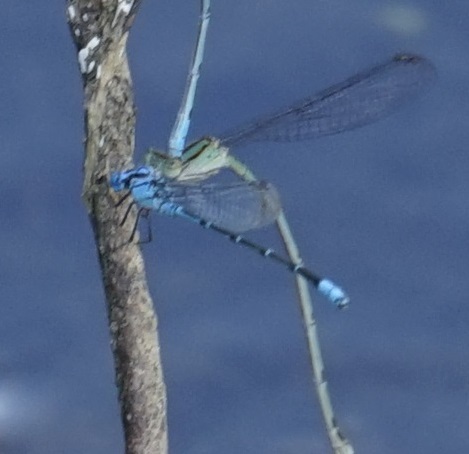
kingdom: Animalia
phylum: Arthropoda
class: Insecta
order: Odonata
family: Coenagrionidae
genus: Pseudagrion
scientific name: Pseudagrion microcephalum
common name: Blue riverdamsel
